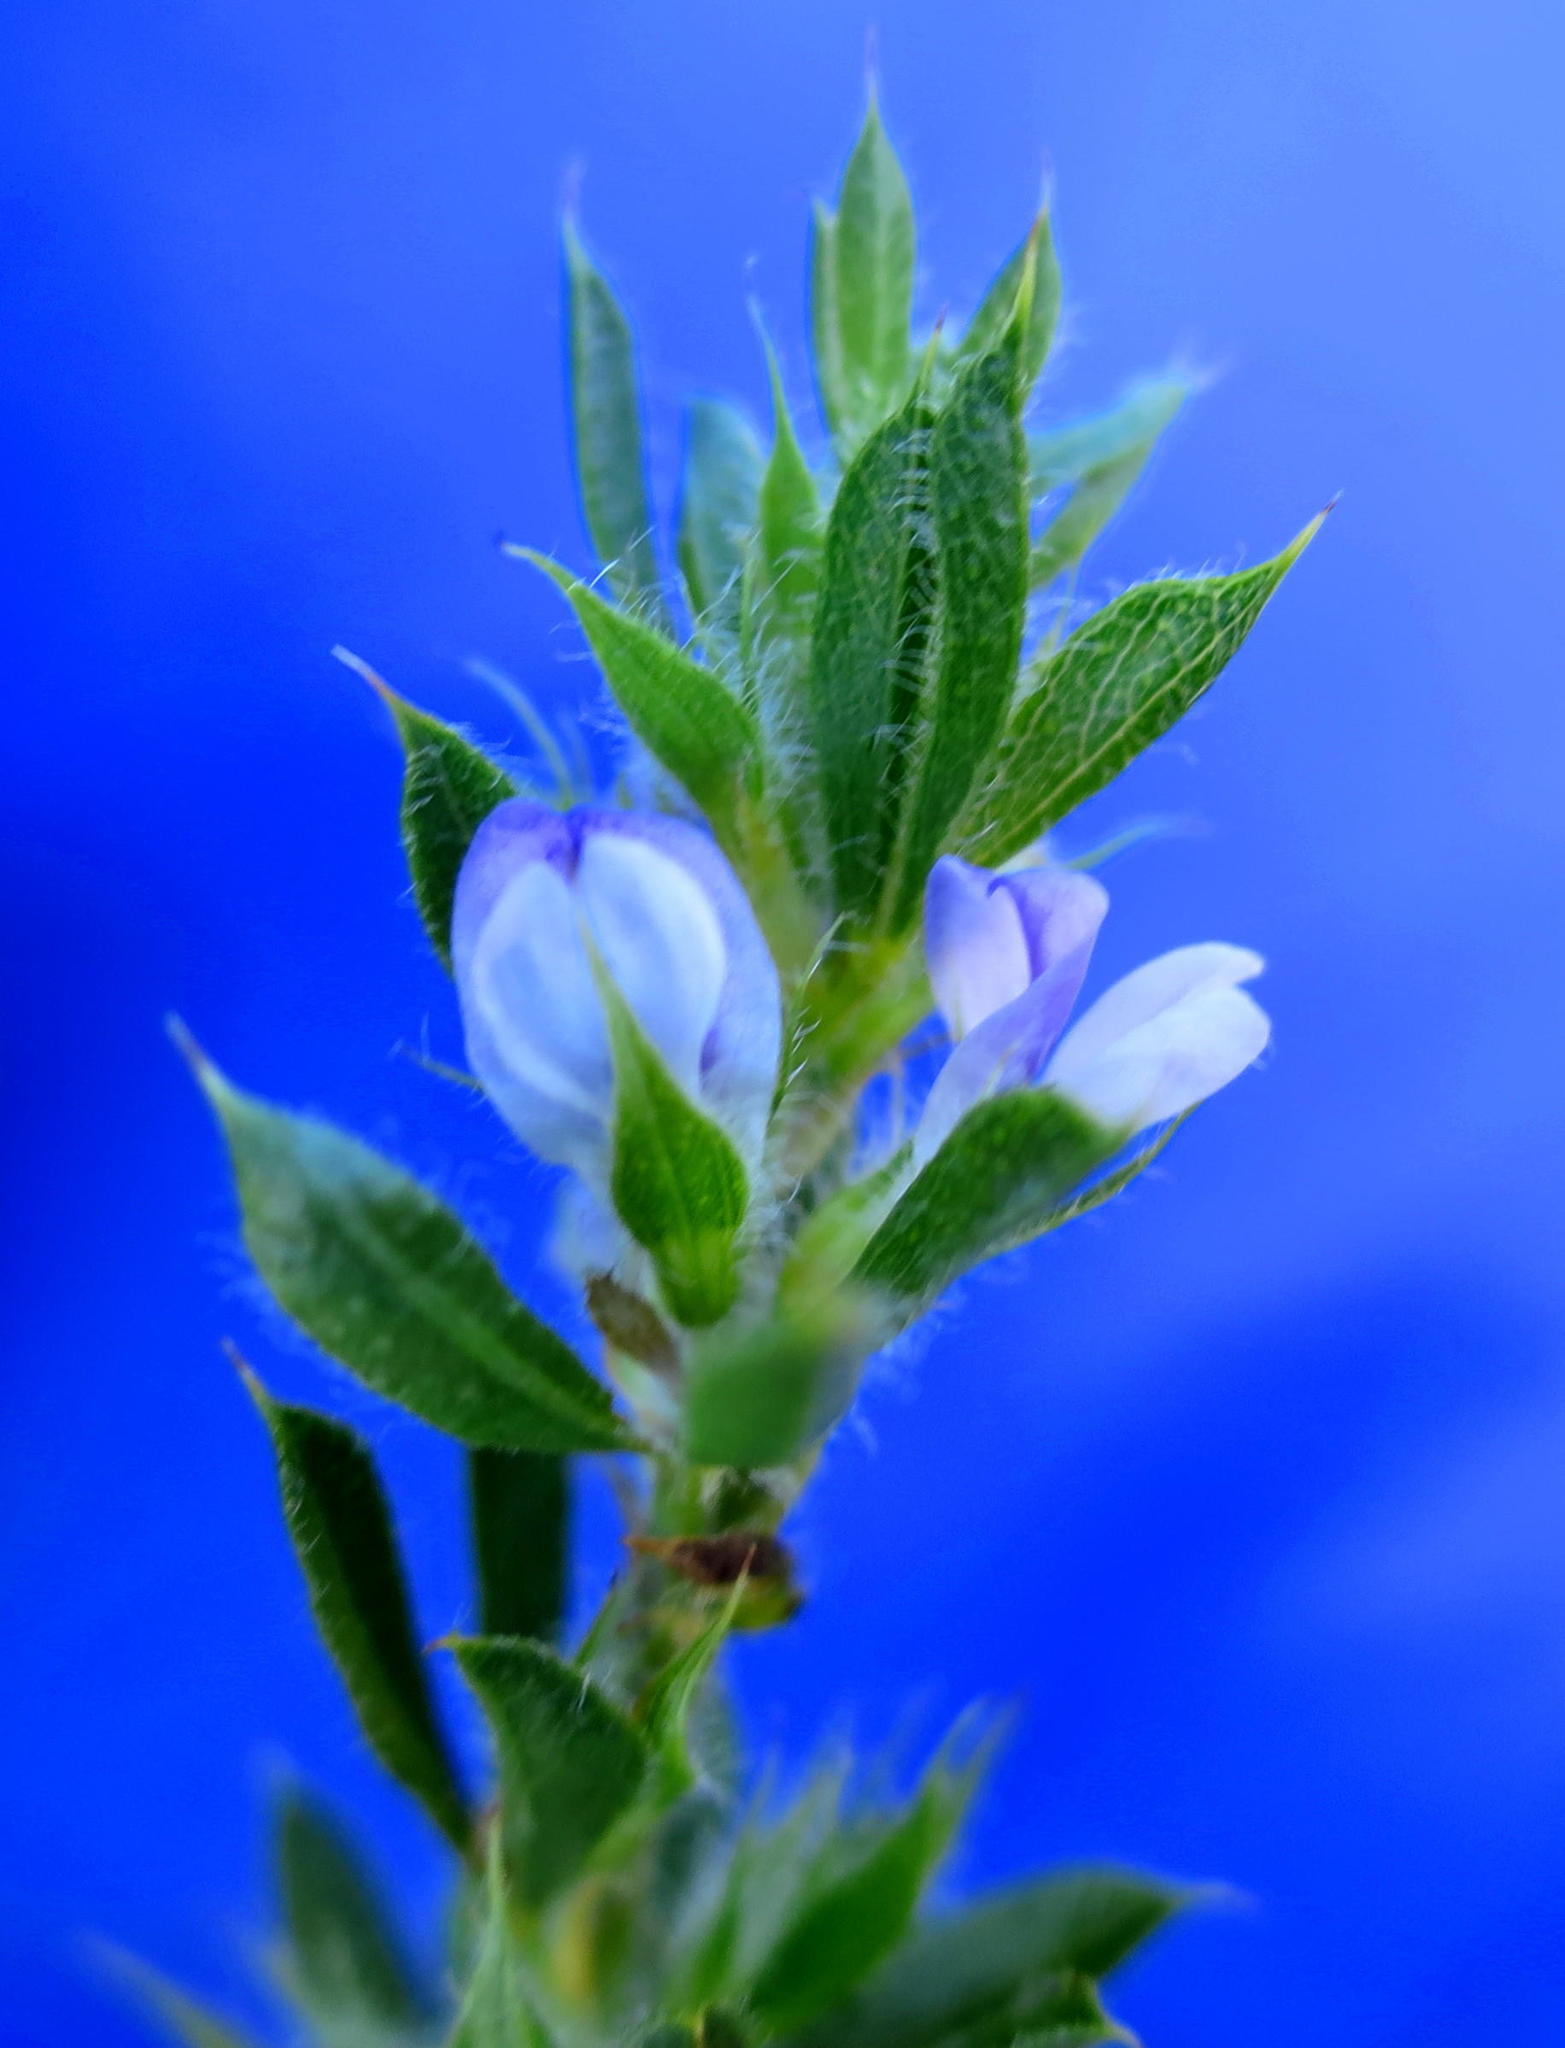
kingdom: Plantae
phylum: Tracheophyta
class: Magnoliopsida
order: Fabales
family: Fabaceae
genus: Psoralea
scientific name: Psoralea pungens
